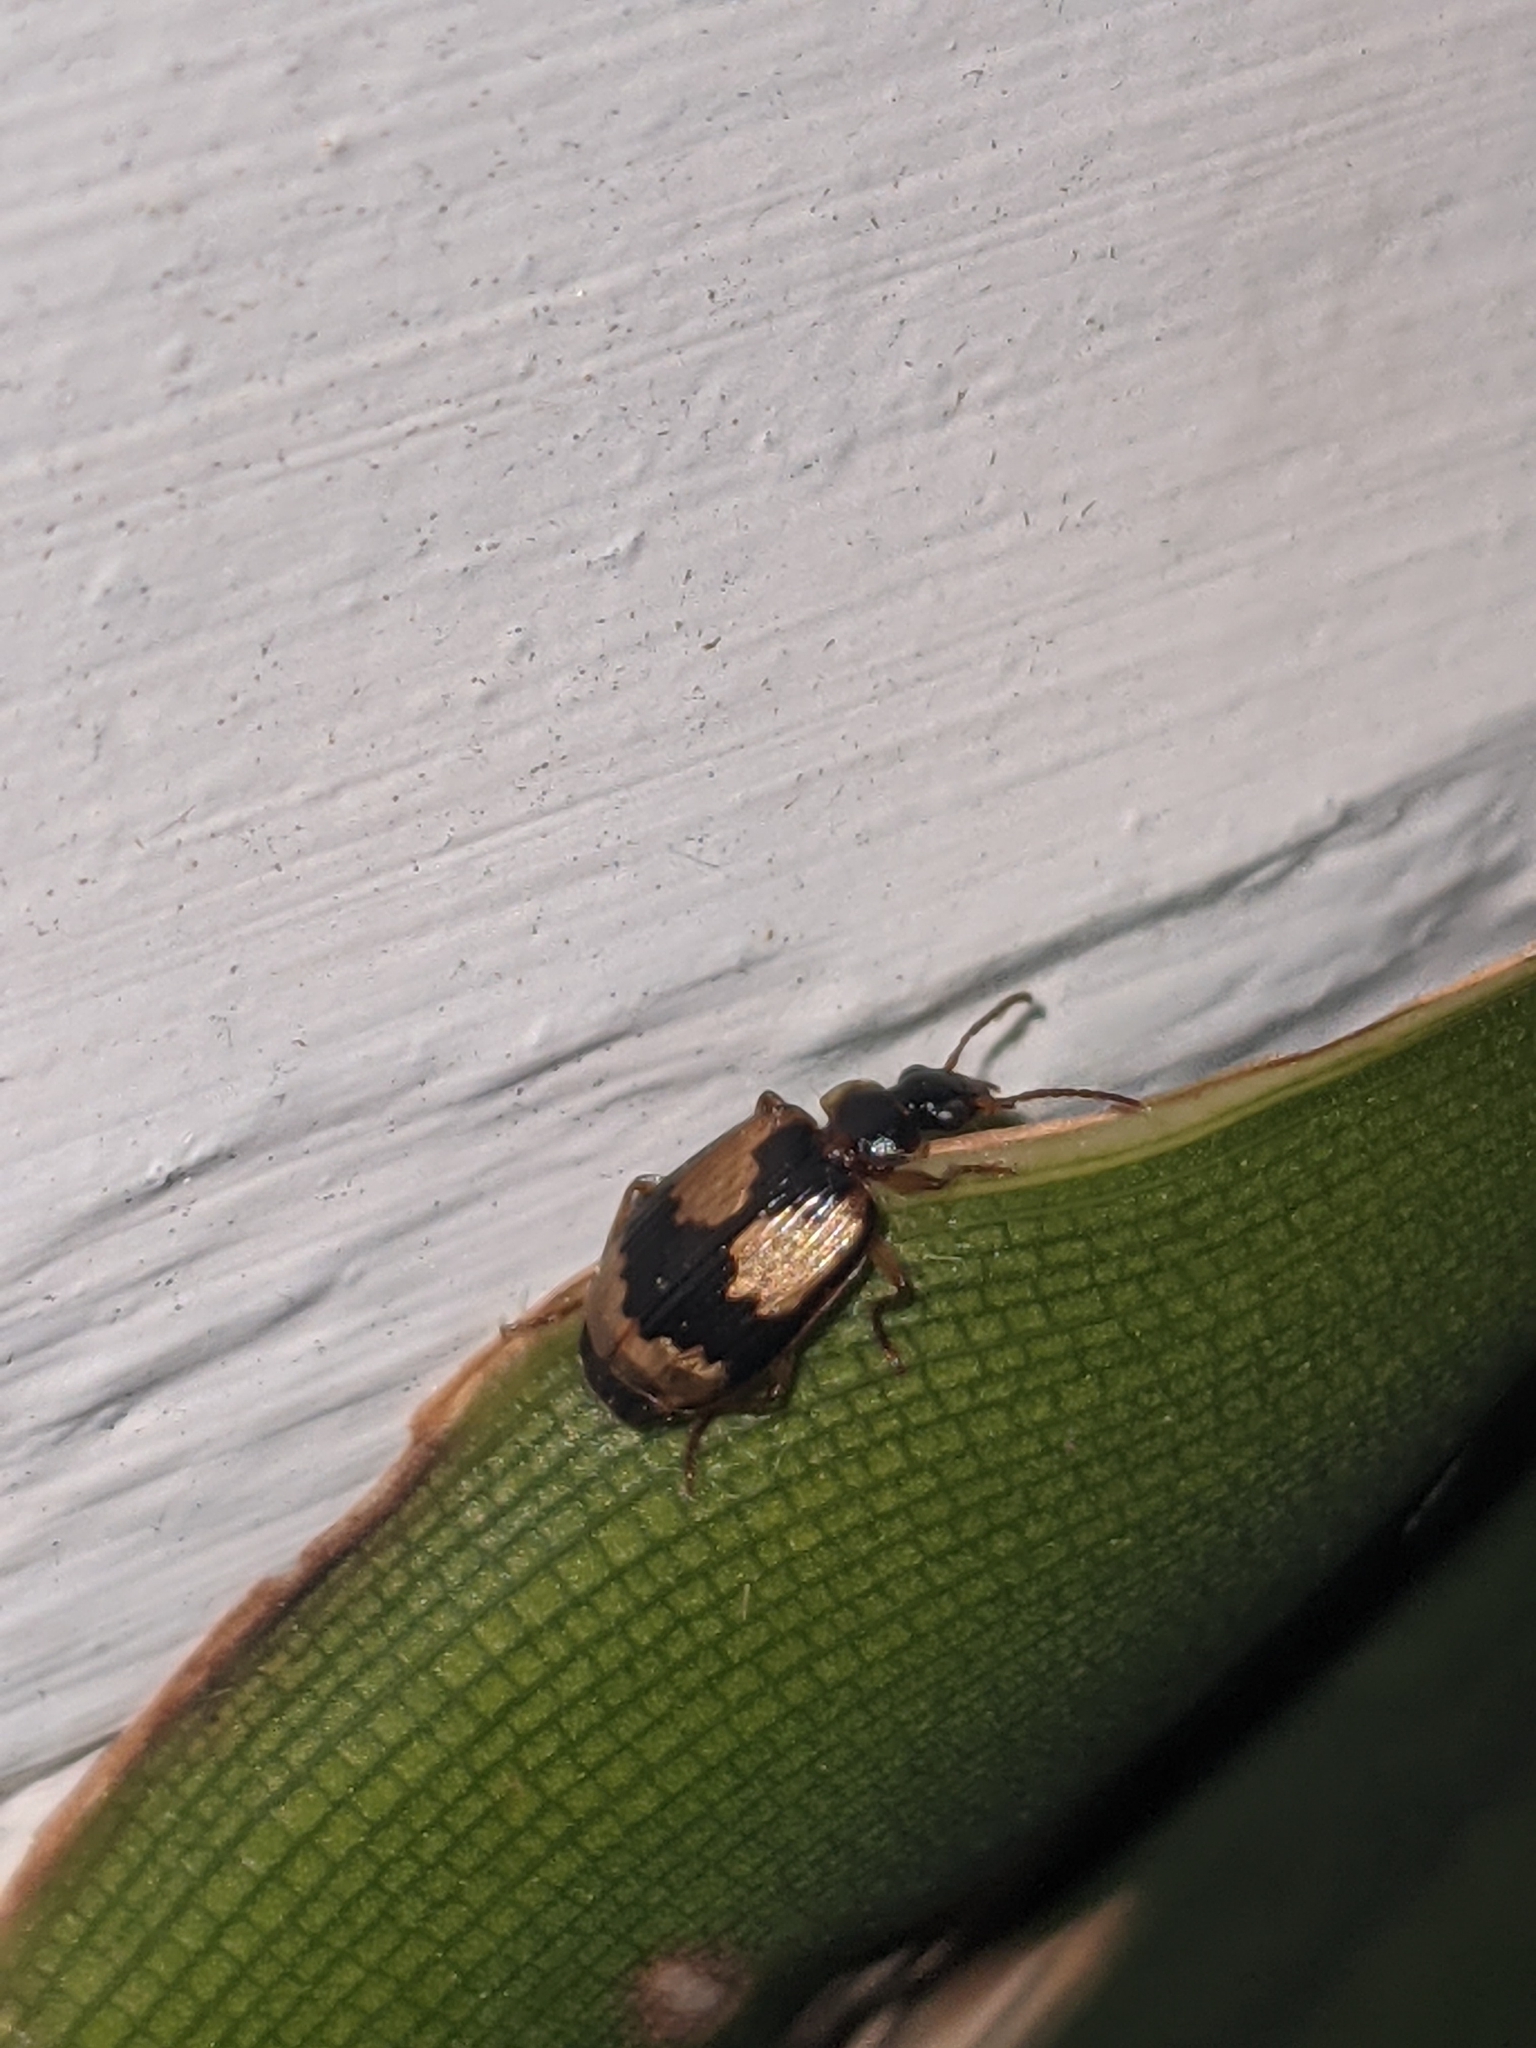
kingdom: Animalia
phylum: Arthropoda
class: Insecta
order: Coleoptera
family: Carabidae
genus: Lebia
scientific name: Lebia fuscata
